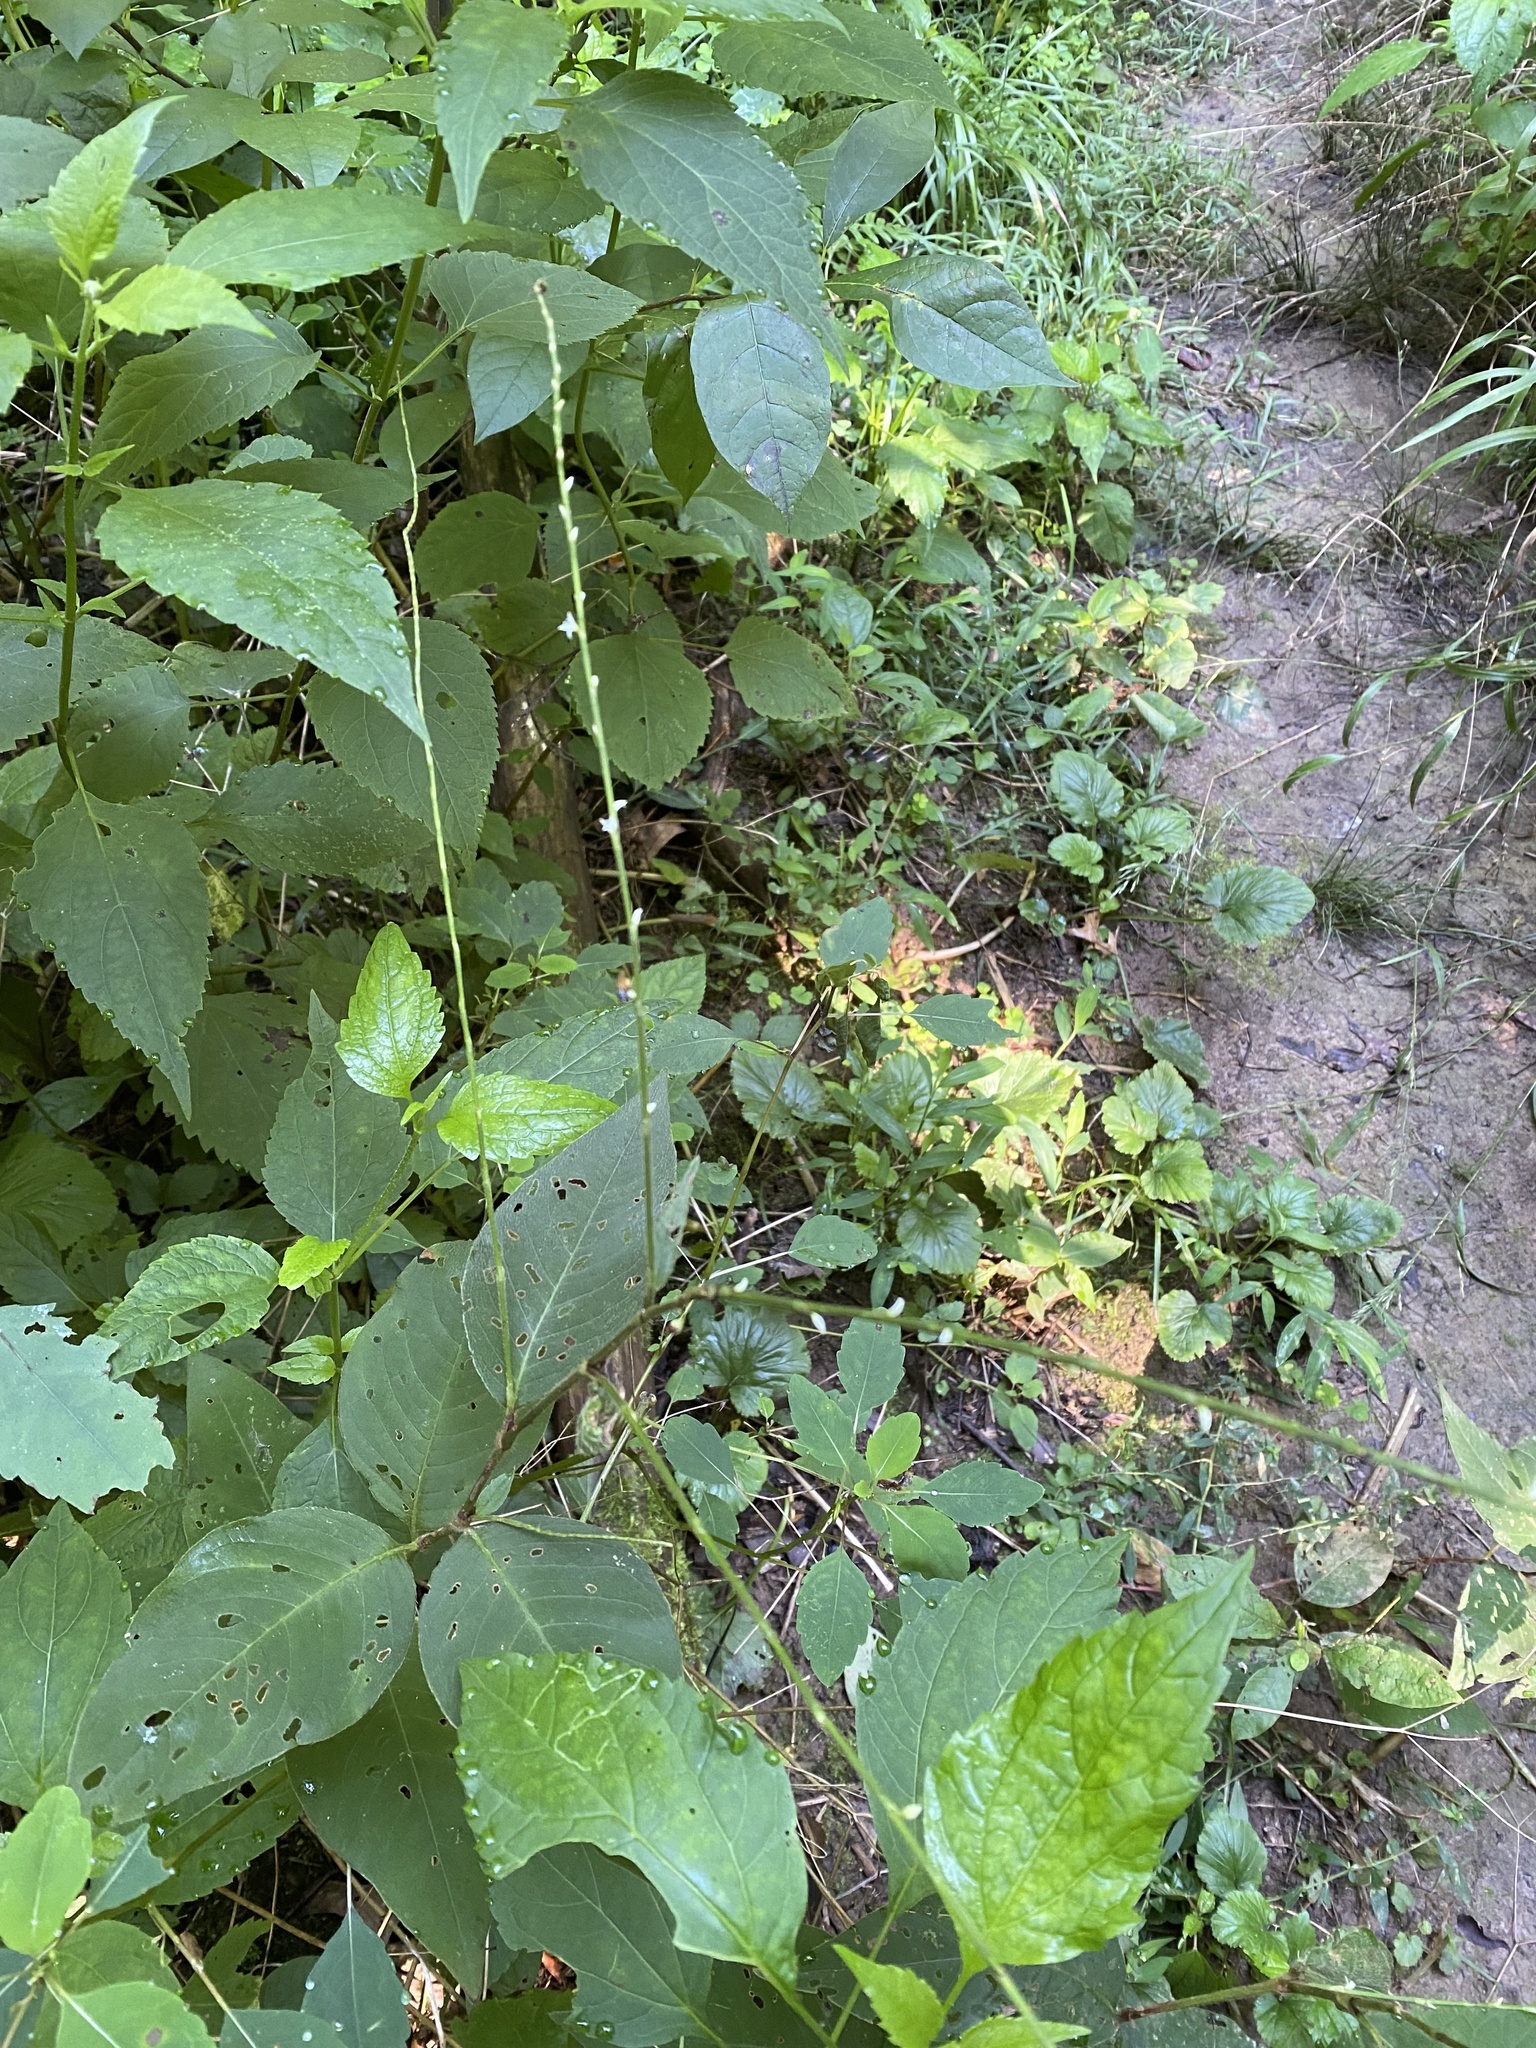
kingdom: Plantae
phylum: Tracheophyta
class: Magnoliopsida
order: Caryophyllales
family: Polygonaceae
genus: Persicaria
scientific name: Persicaria virginiana
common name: Jumpseed
